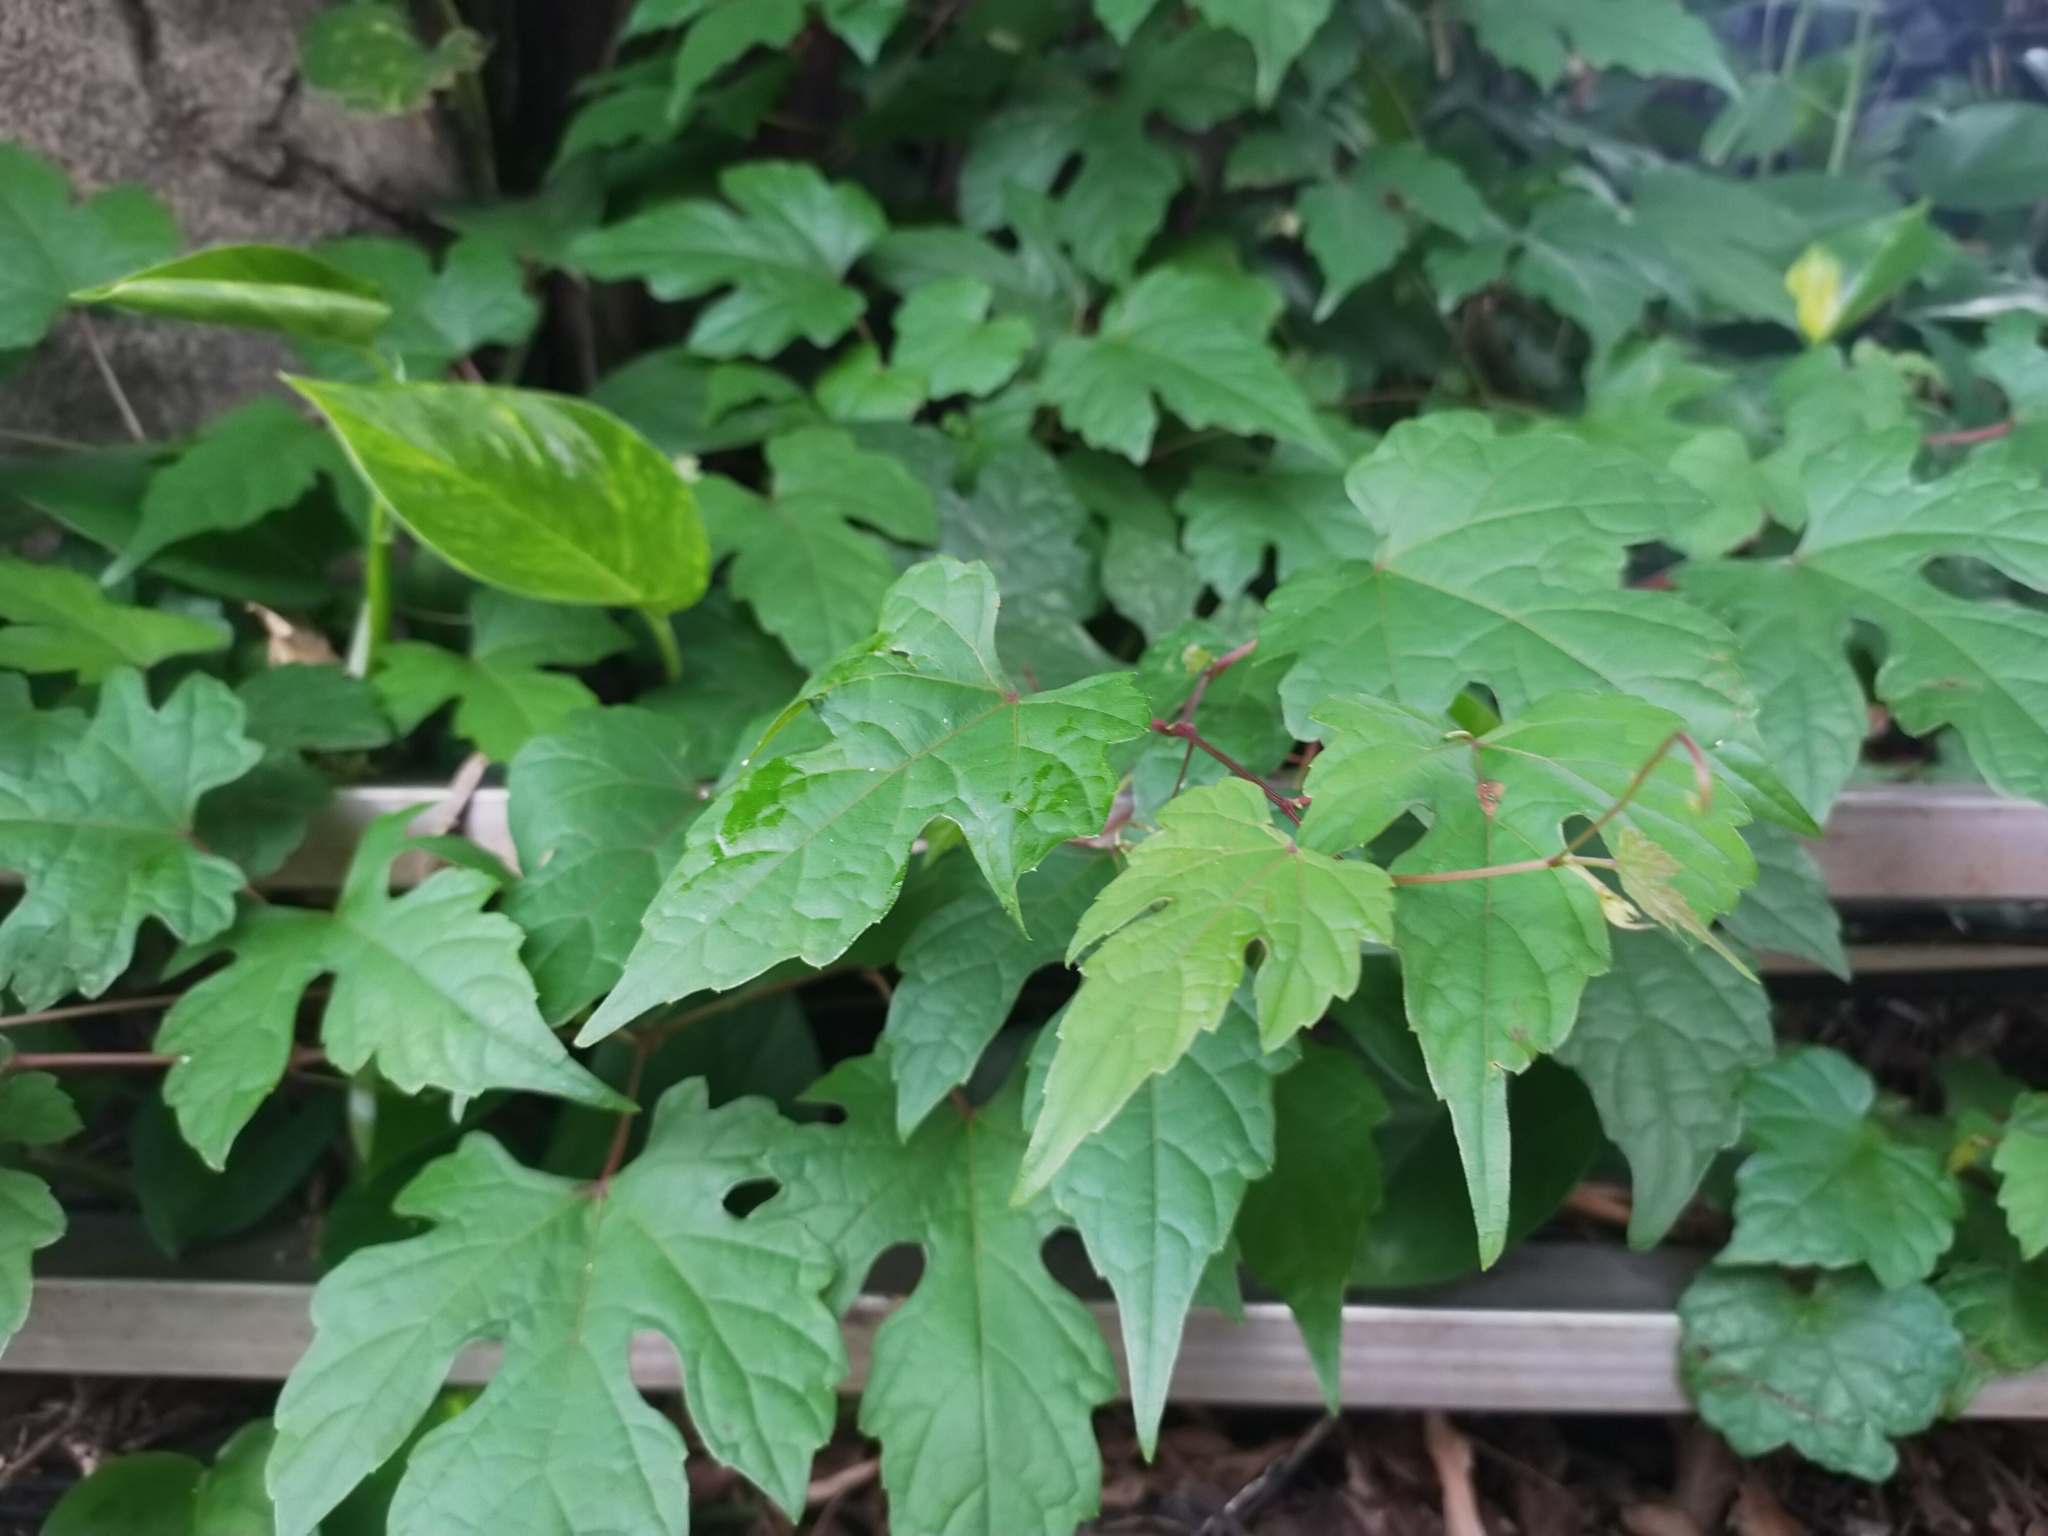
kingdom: Plantae
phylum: Tracheophyta
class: Magnoliopsida
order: Vitales
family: Vitaceae
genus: Ampelopsis
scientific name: Ampelopsis glandulosa
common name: Amur peppervine
